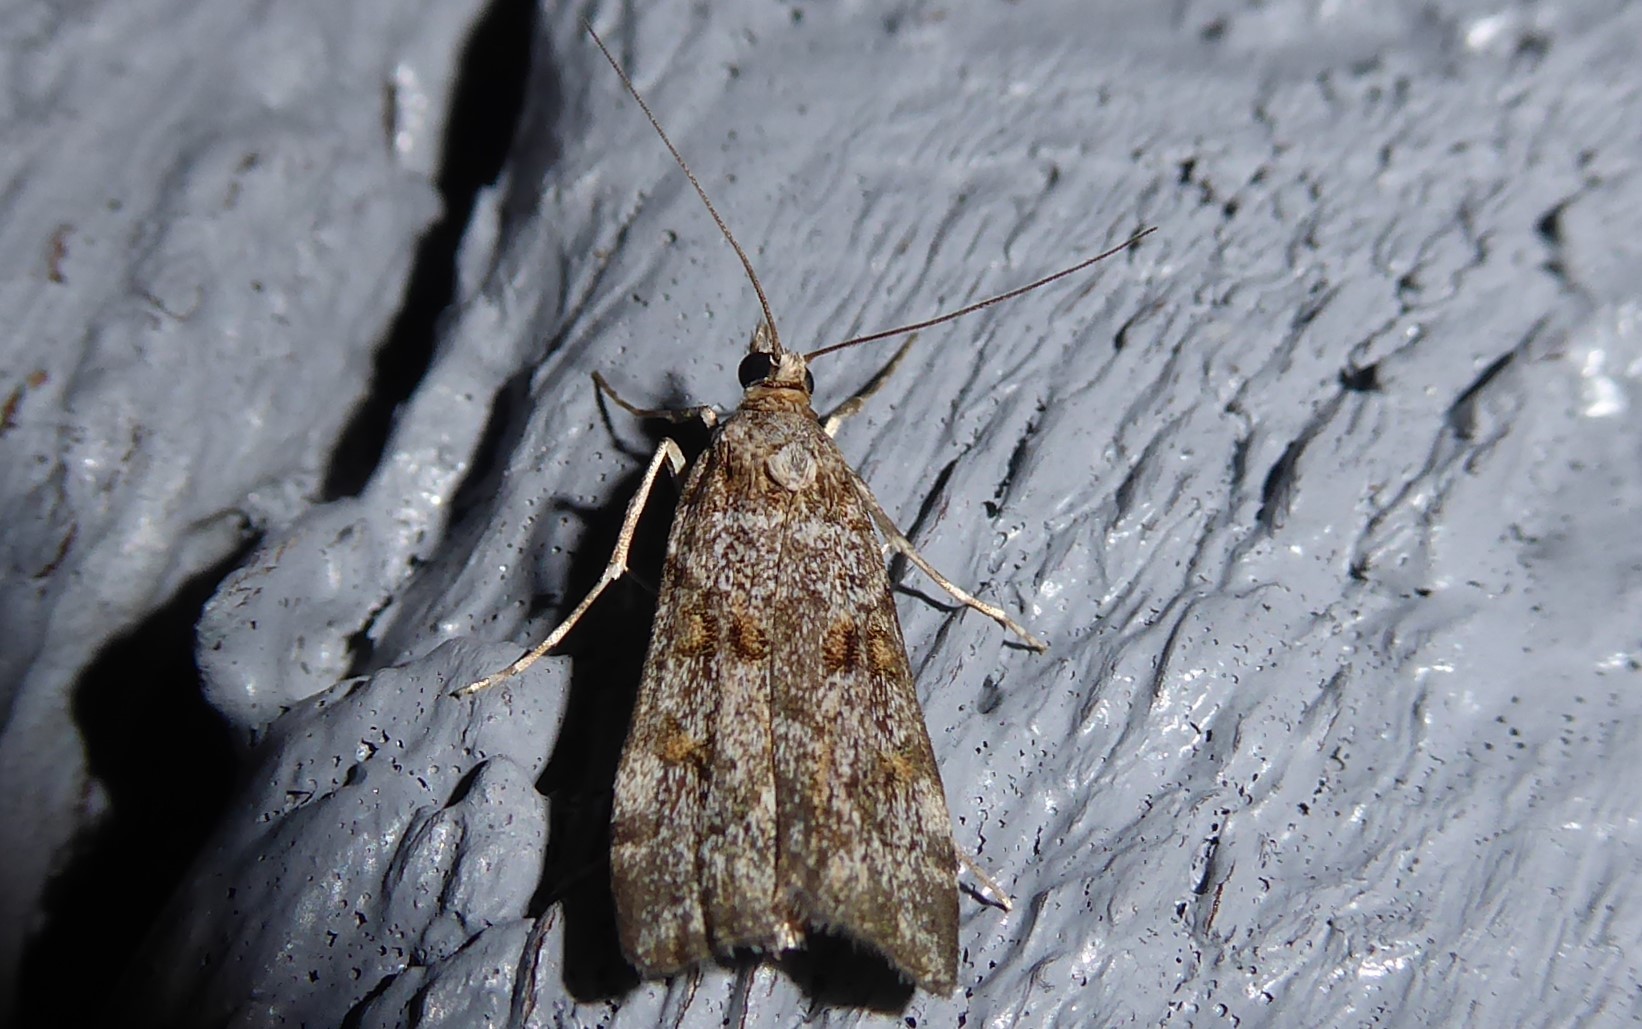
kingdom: Animalia
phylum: Arthropoda
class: Insecta
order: Lepidoptera
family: Crambidae
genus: Eudonia
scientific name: Eudonia diphtheralis
